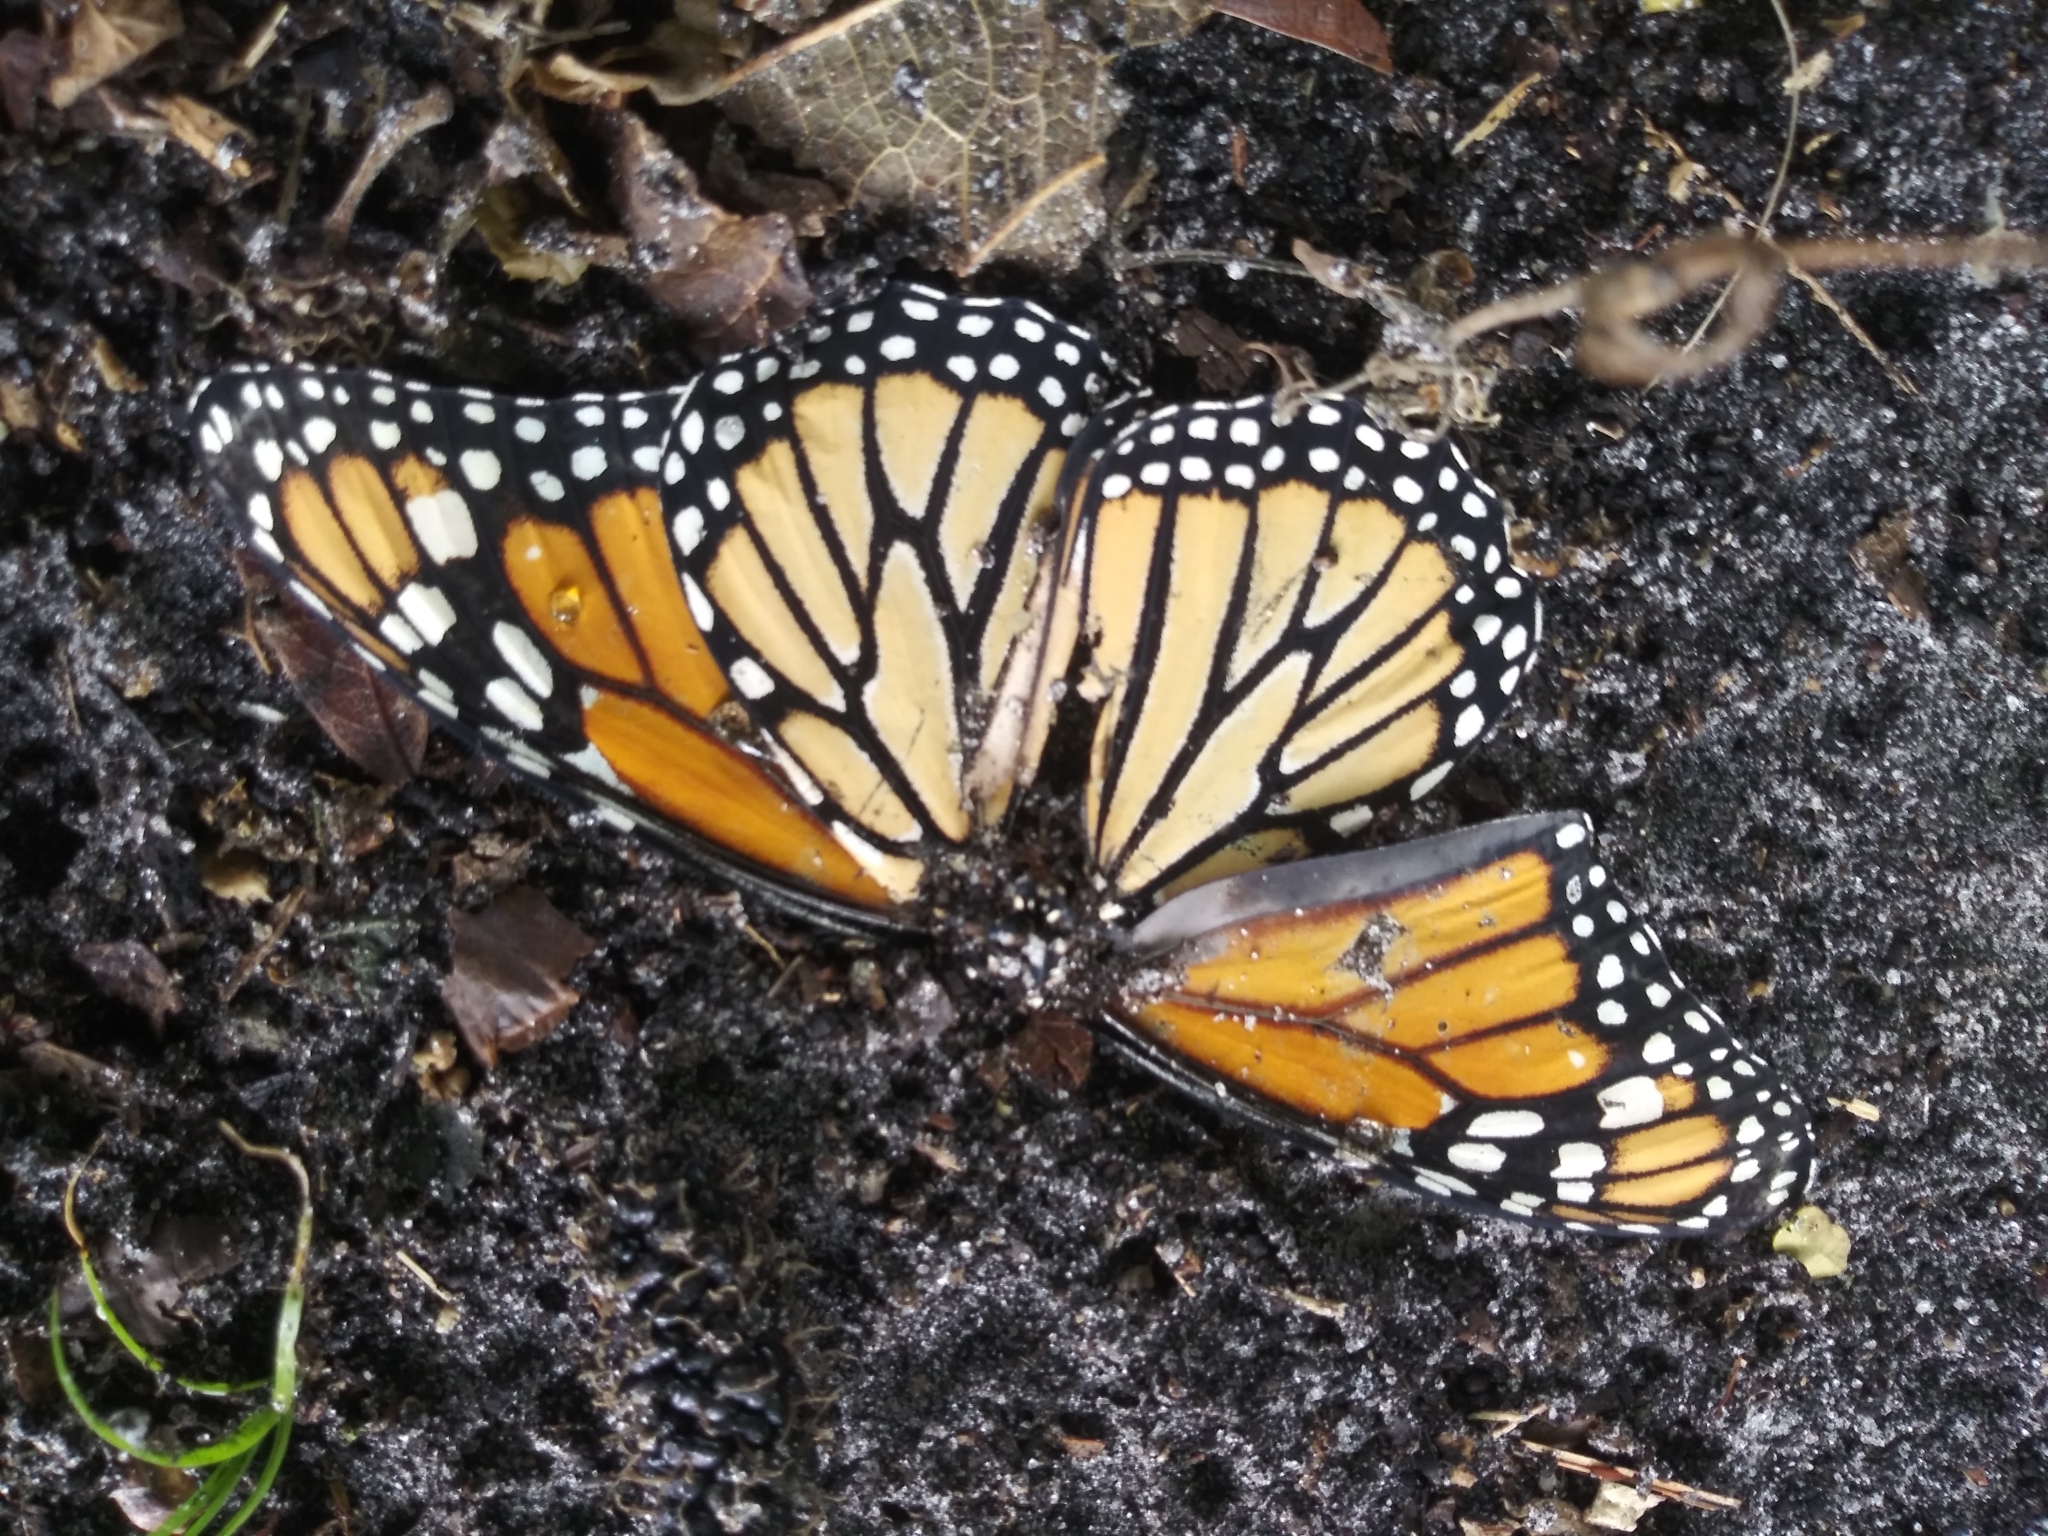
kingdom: Animalia
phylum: Arthropoda
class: Insecta
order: Lepidoptera
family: Nymphalidae
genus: Danaus
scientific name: Danaus plexippus
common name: Monarch
